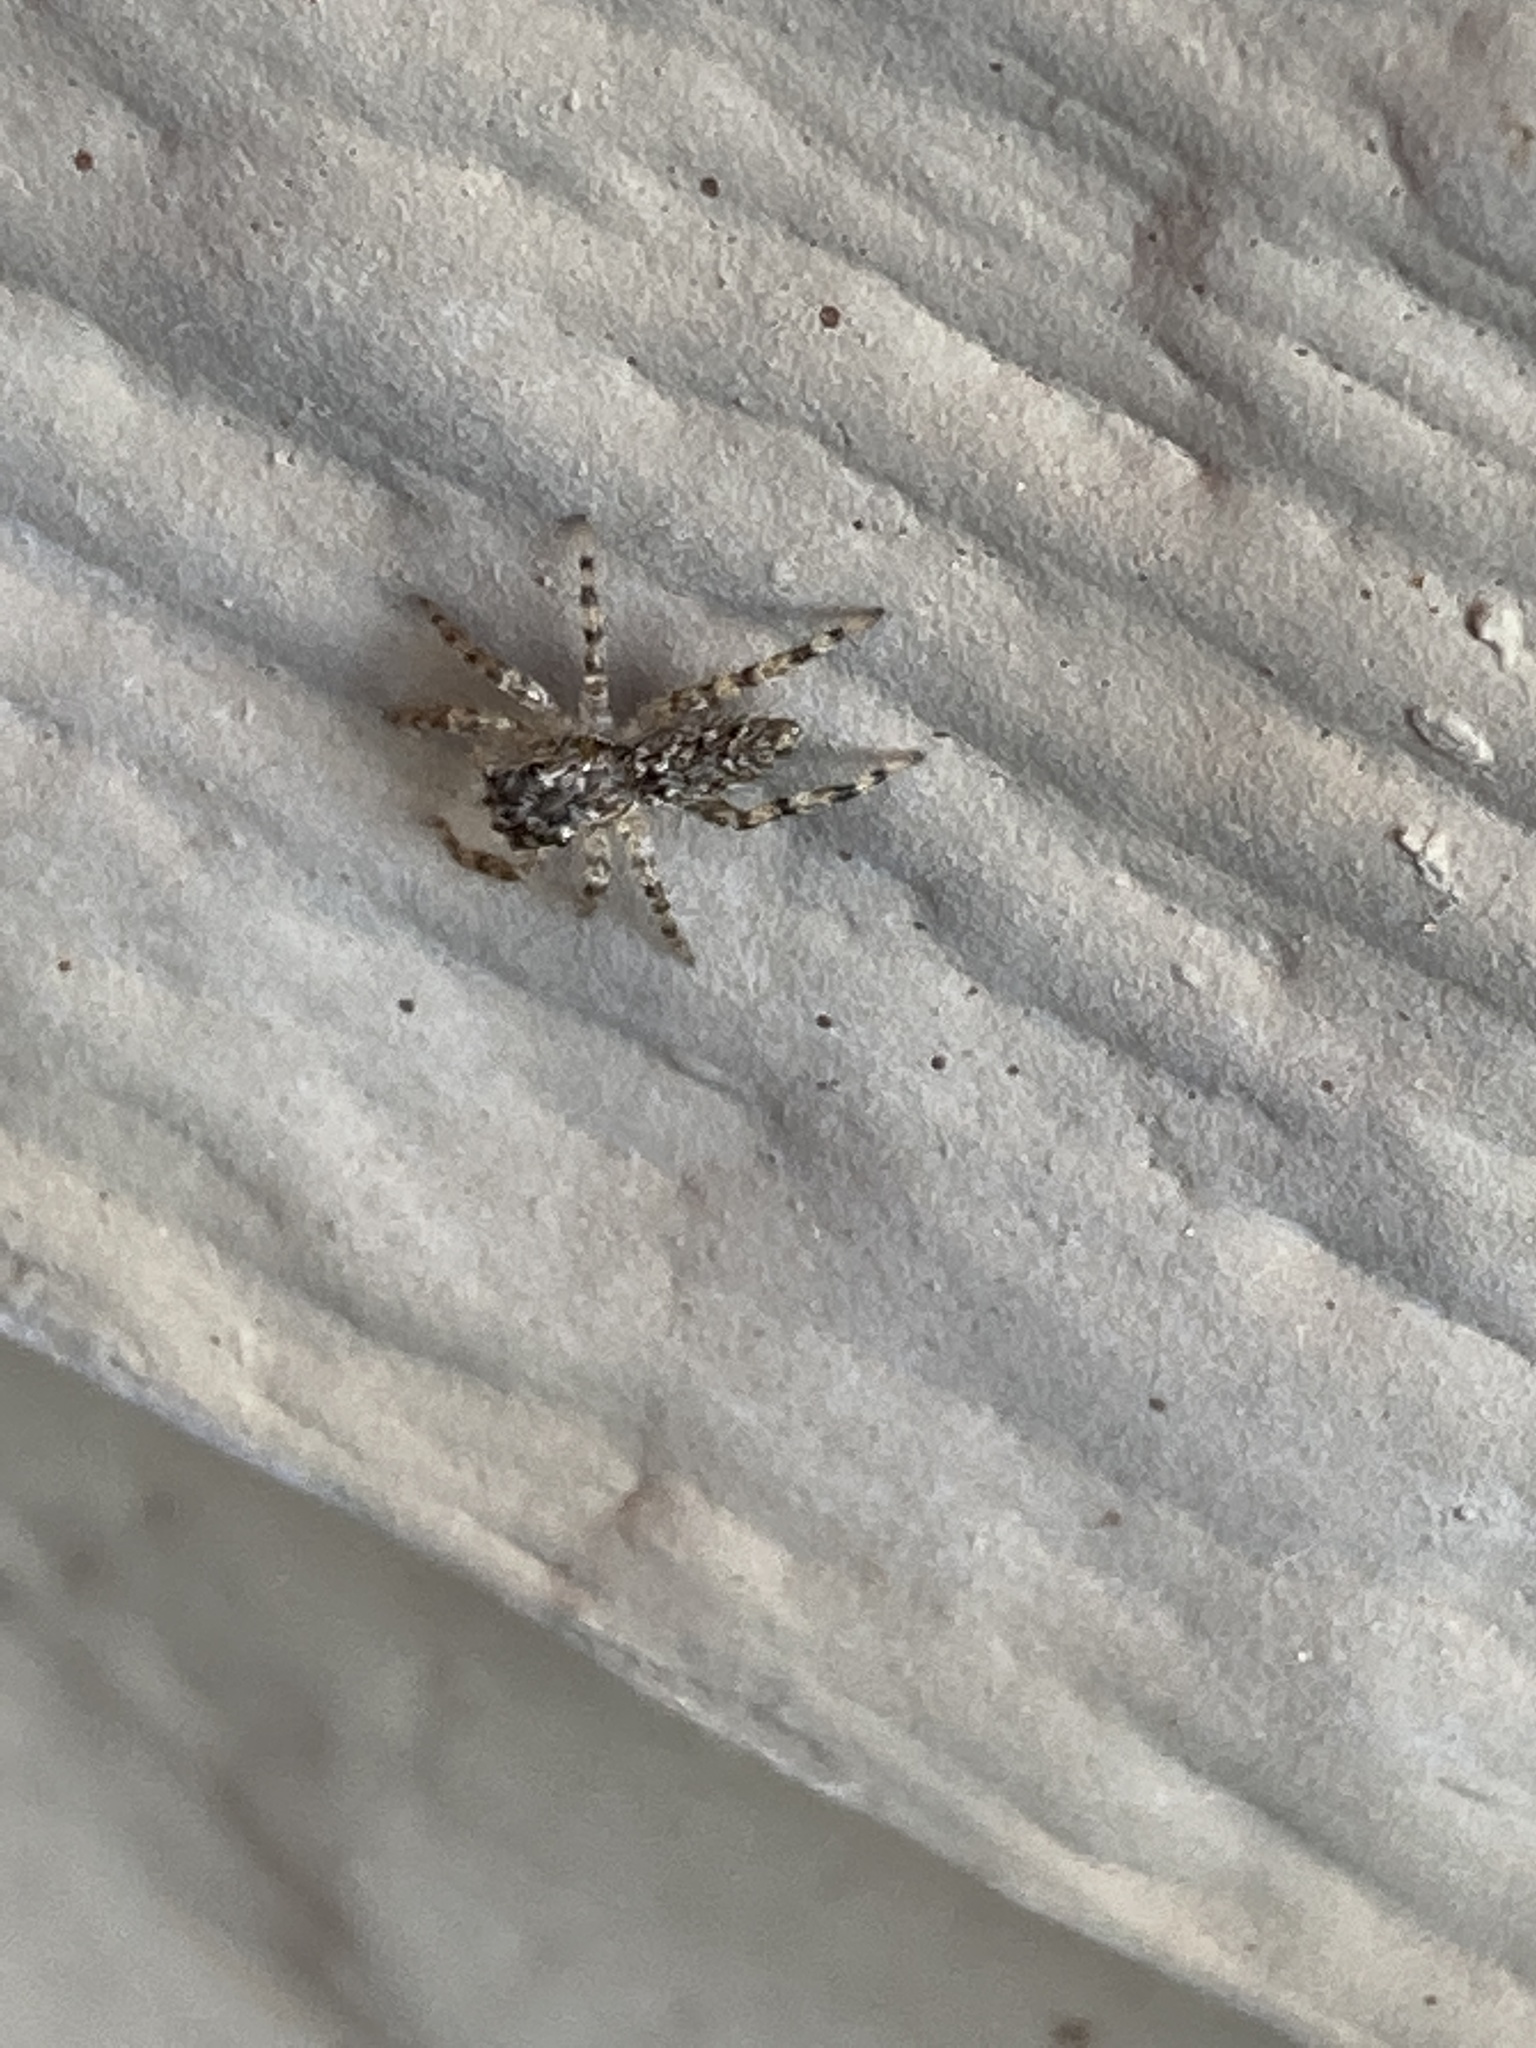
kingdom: Animalia
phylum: Arthropoda
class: Arachnida
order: Araneae
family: Salticidae
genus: Platycryptus
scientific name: Platycryptus undatus
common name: Tan jumping spider
